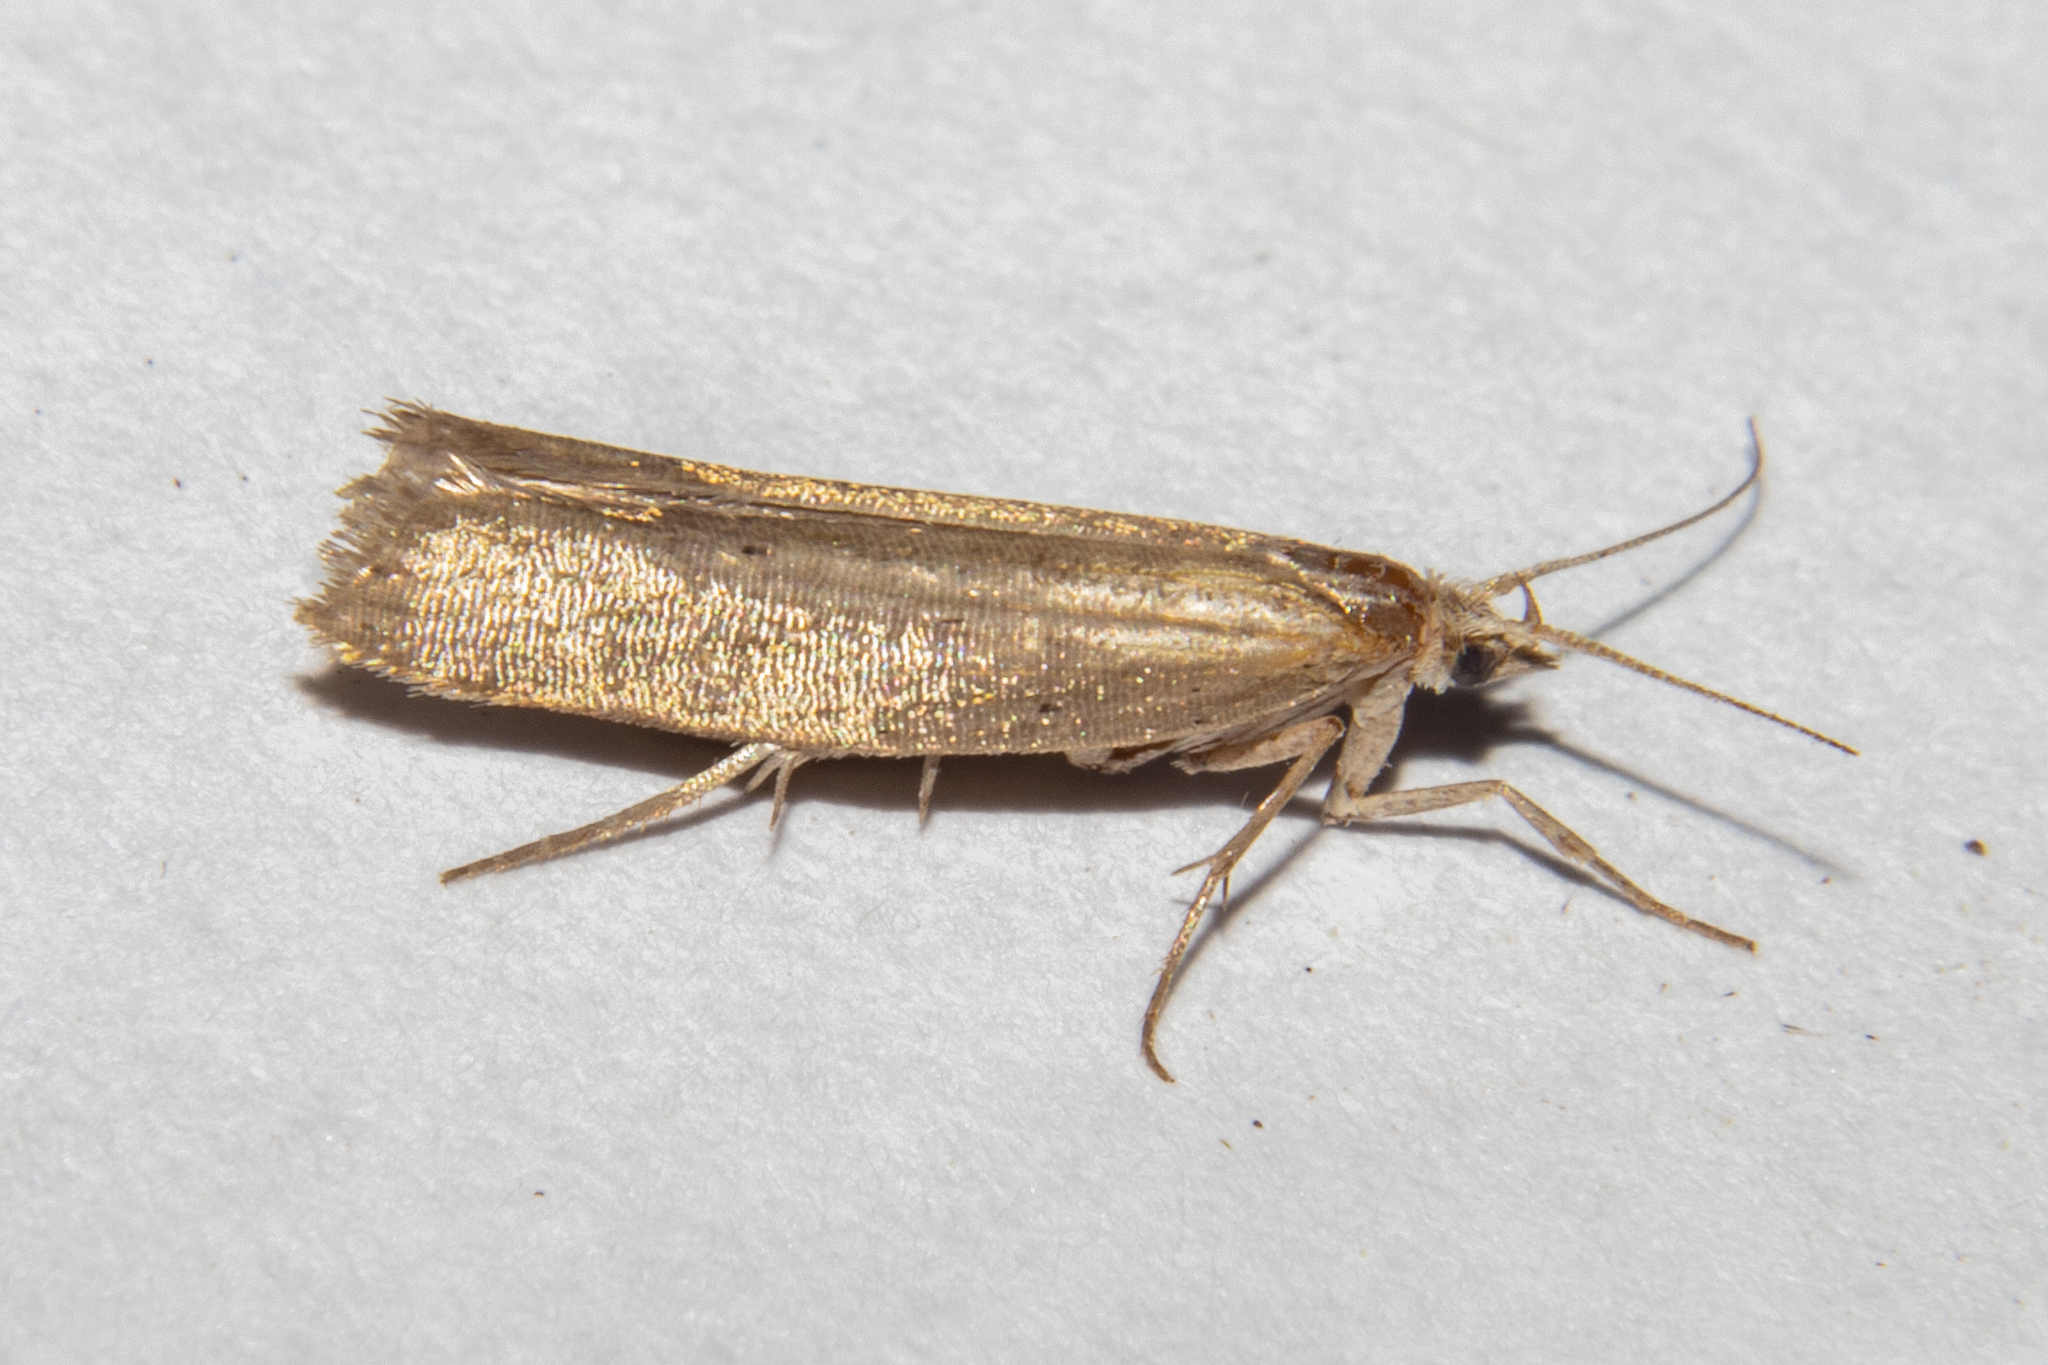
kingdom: Animalia
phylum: Arthropoda
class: Insecta
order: Lepidoptera
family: Plutellidae
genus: Plutella
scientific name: Plutella
